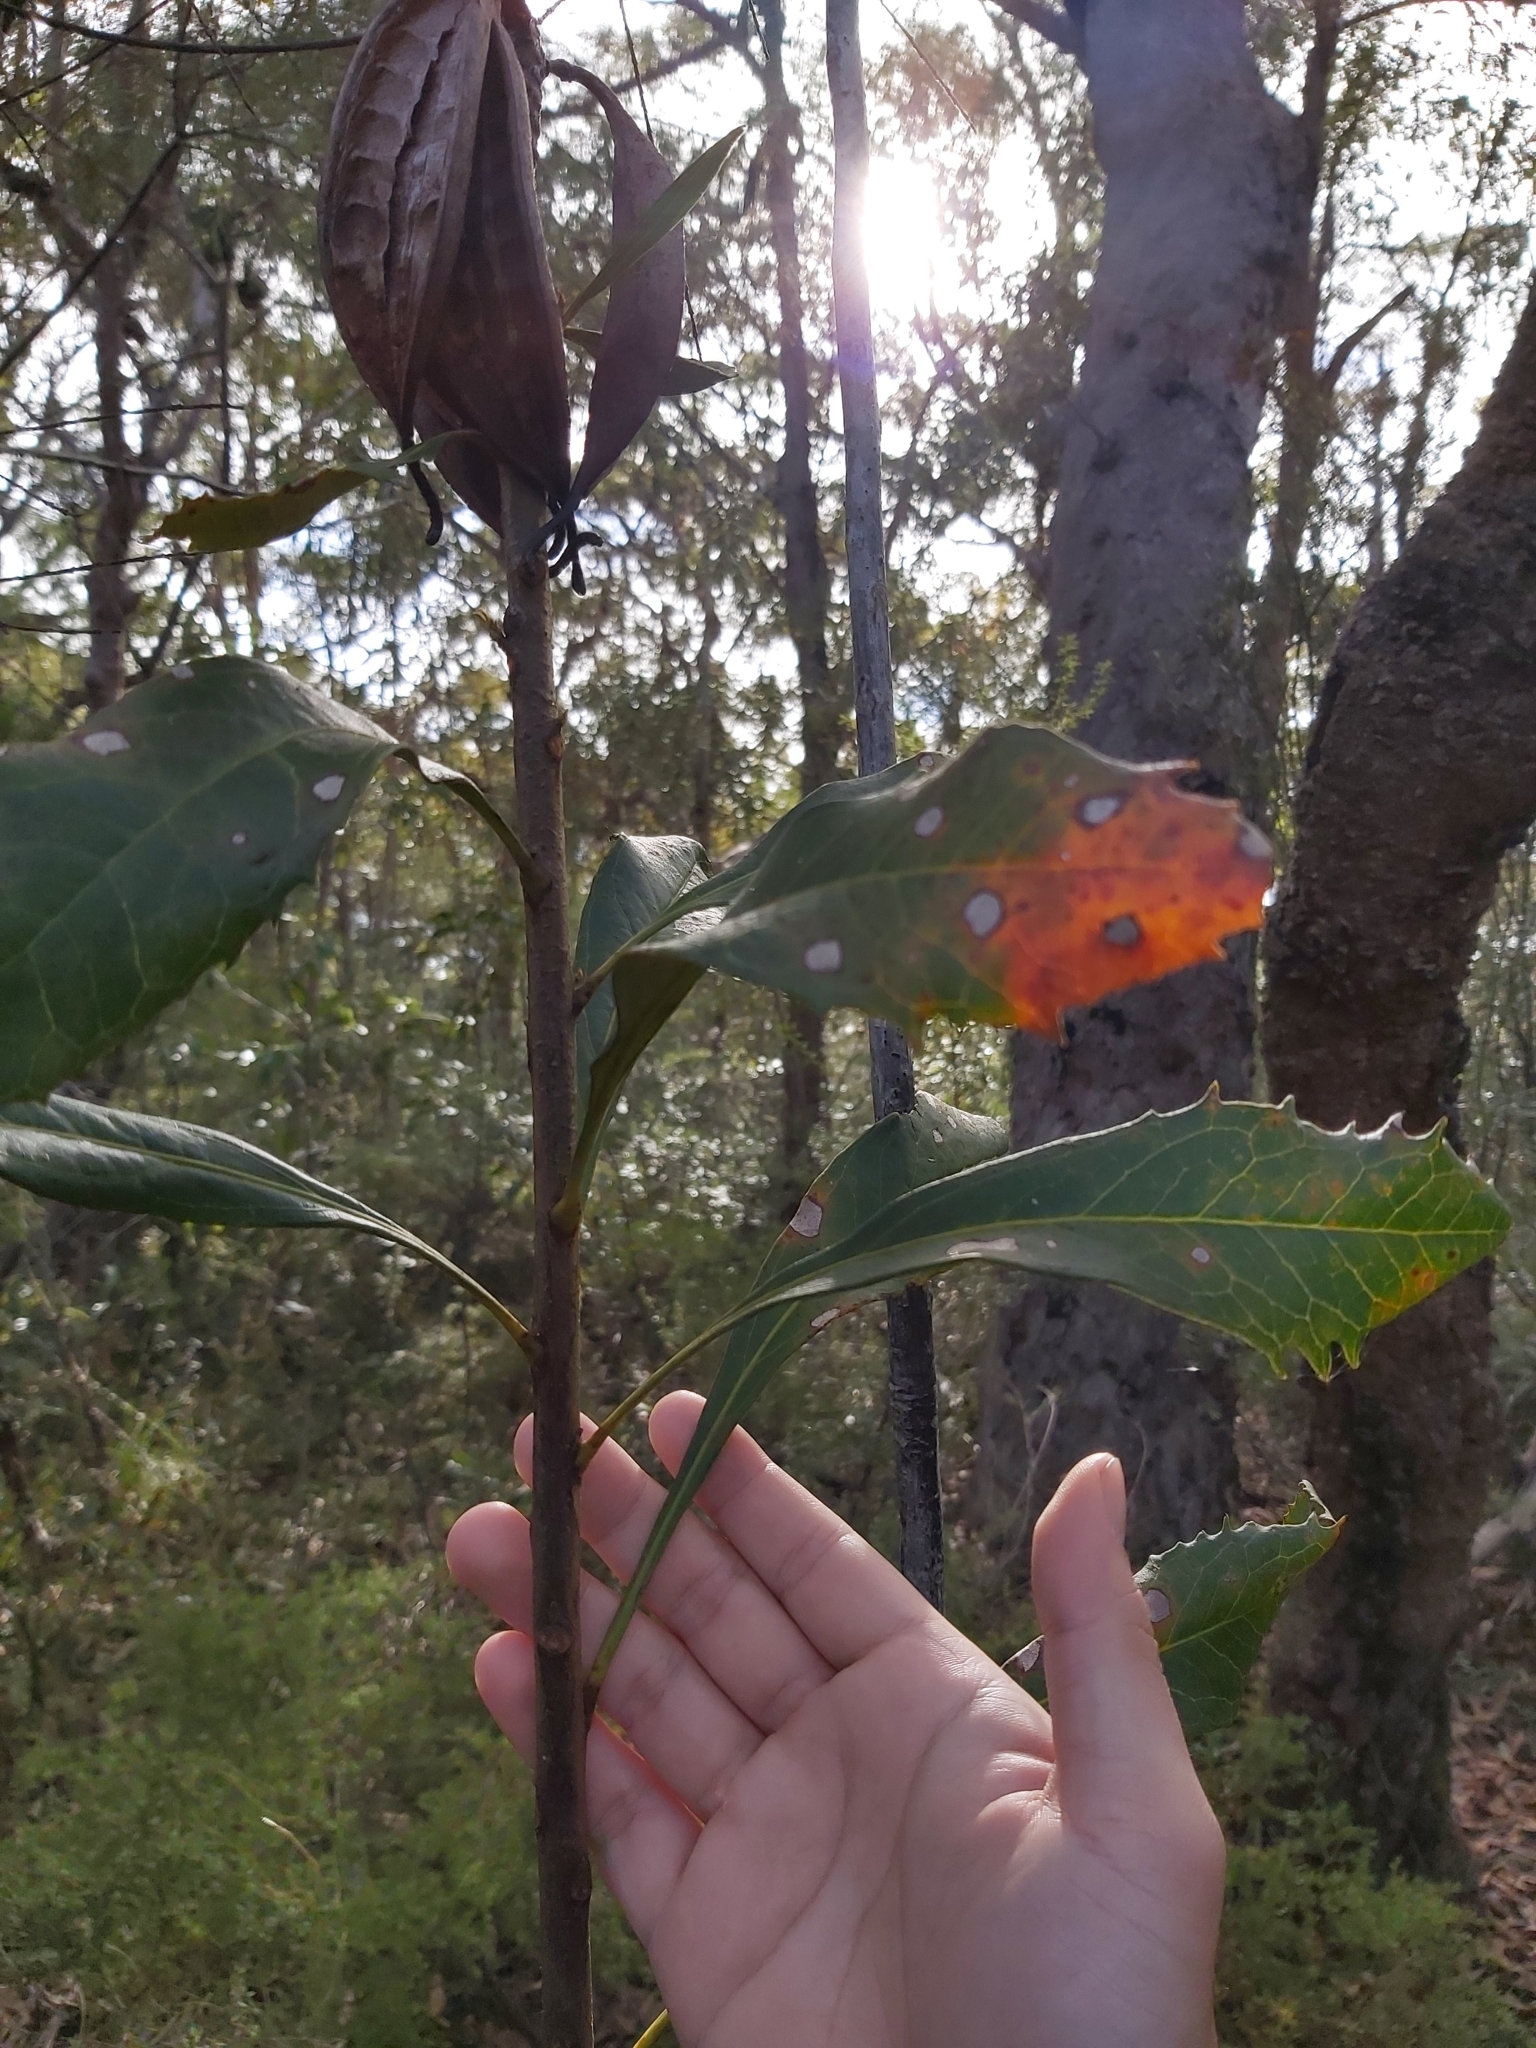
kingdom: Plantae
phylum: Tracheophyta
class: Magnoliopsida
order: Proteales
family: Proteaceae
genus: Telopea
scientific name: Telopea speciosissima
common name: New south wales waratah
